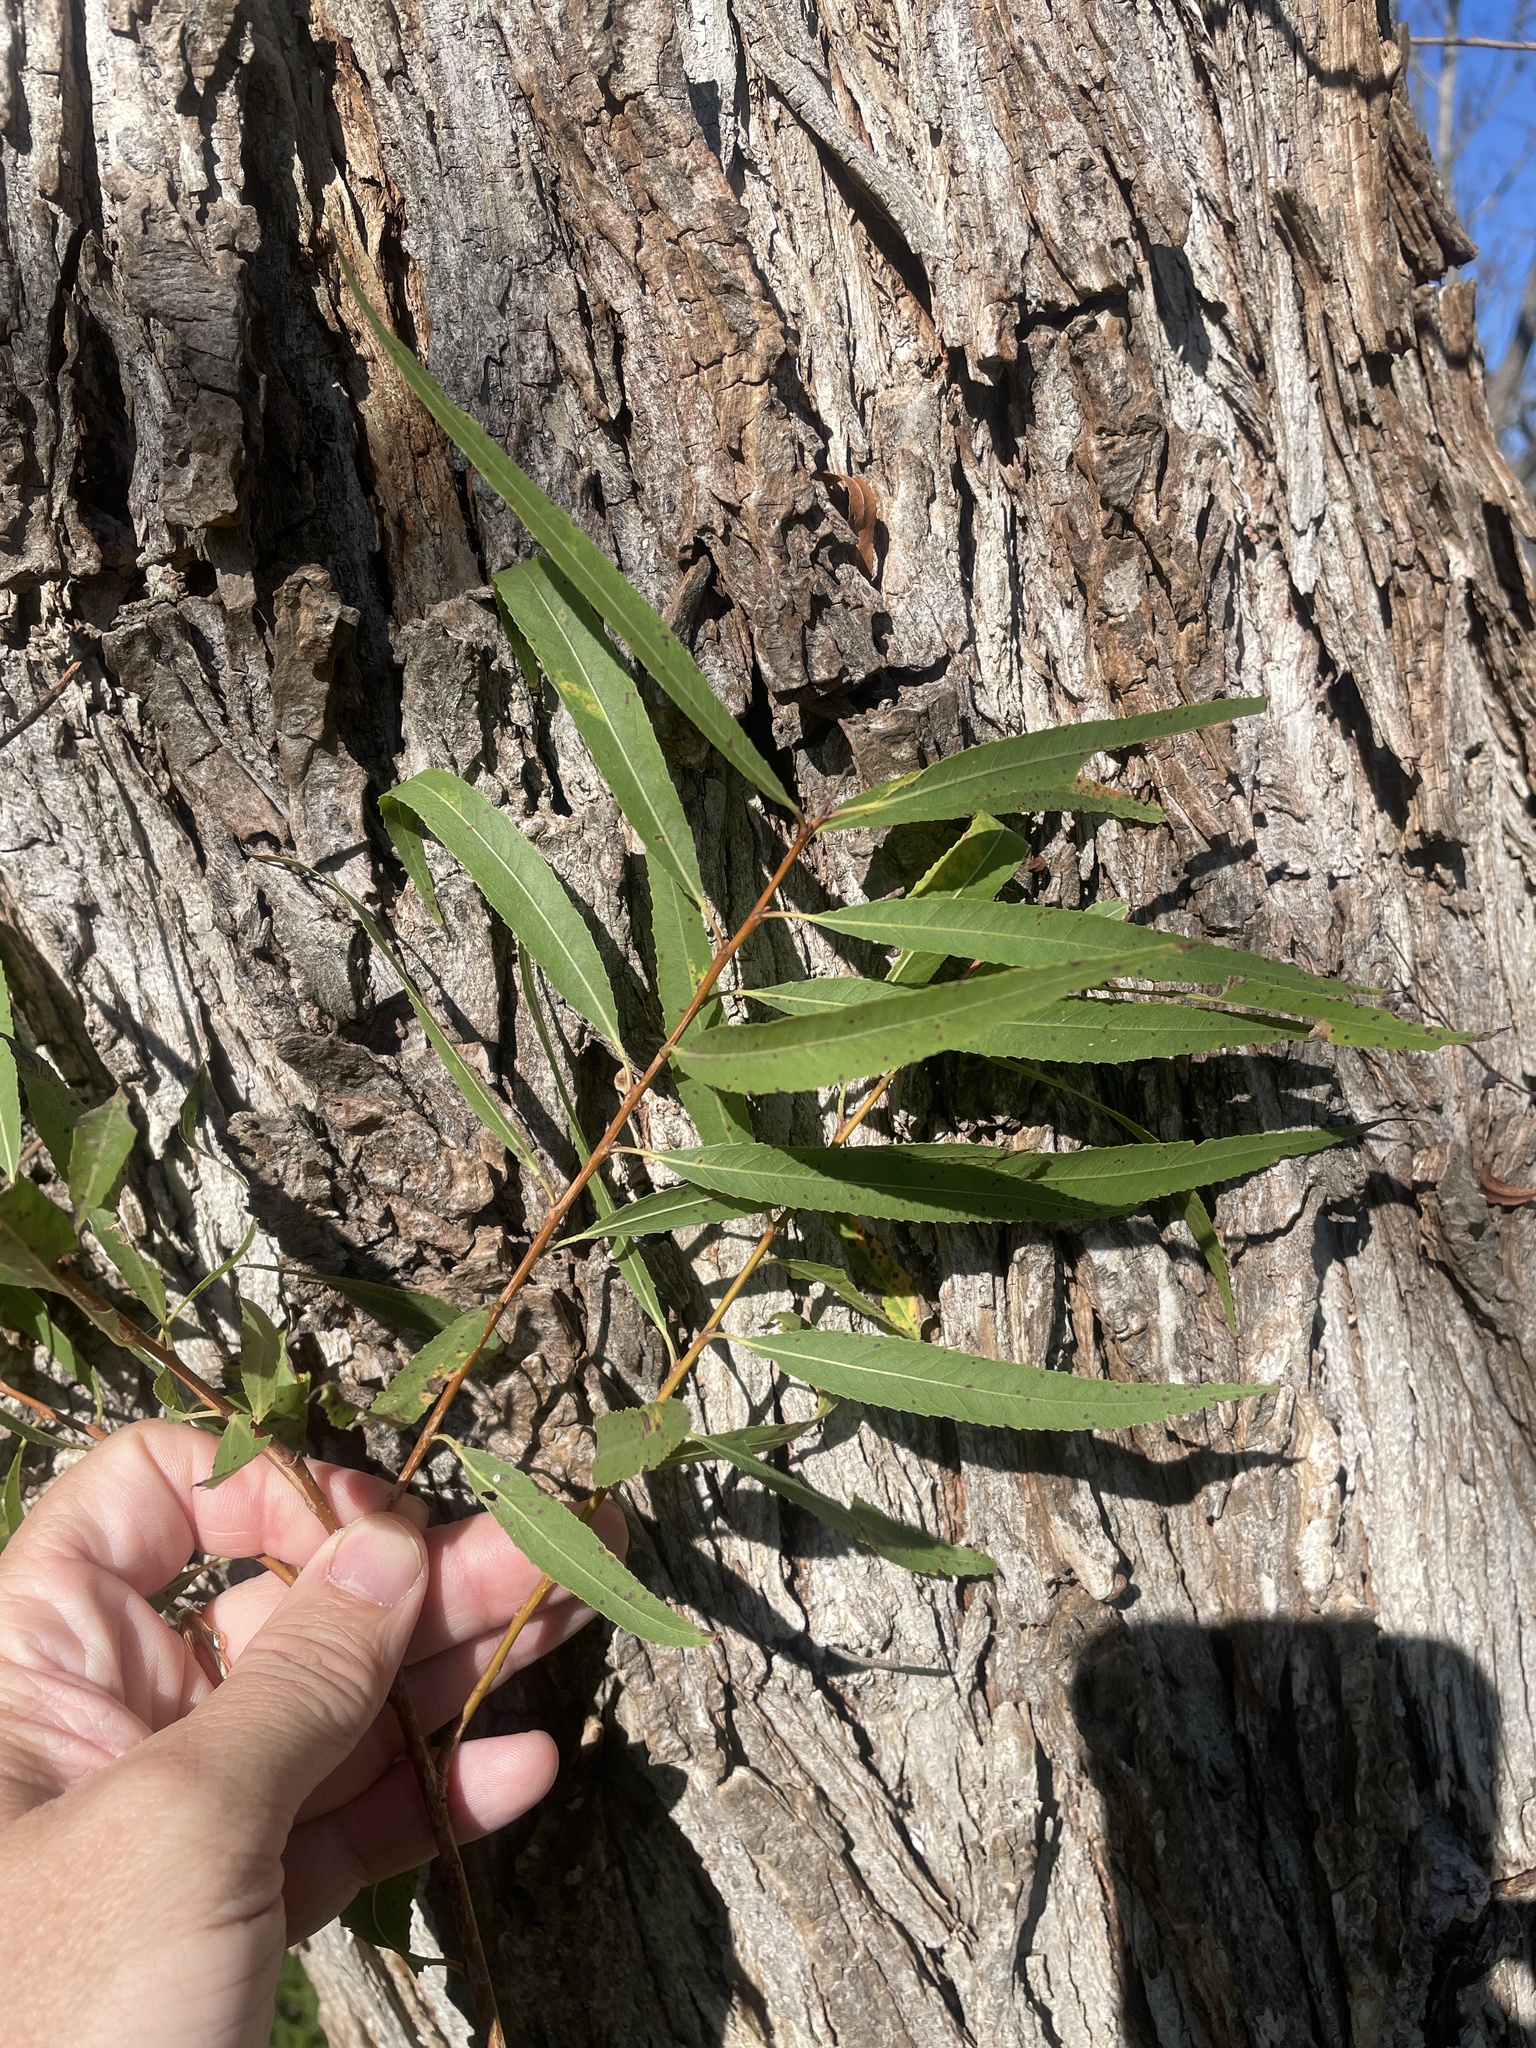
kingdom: Plantae
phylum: Tracheophyta
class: Magnoliopsida
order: Malpighiales
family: Salicaceae
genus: Salix
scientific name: Salix nigra
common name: Black willow
